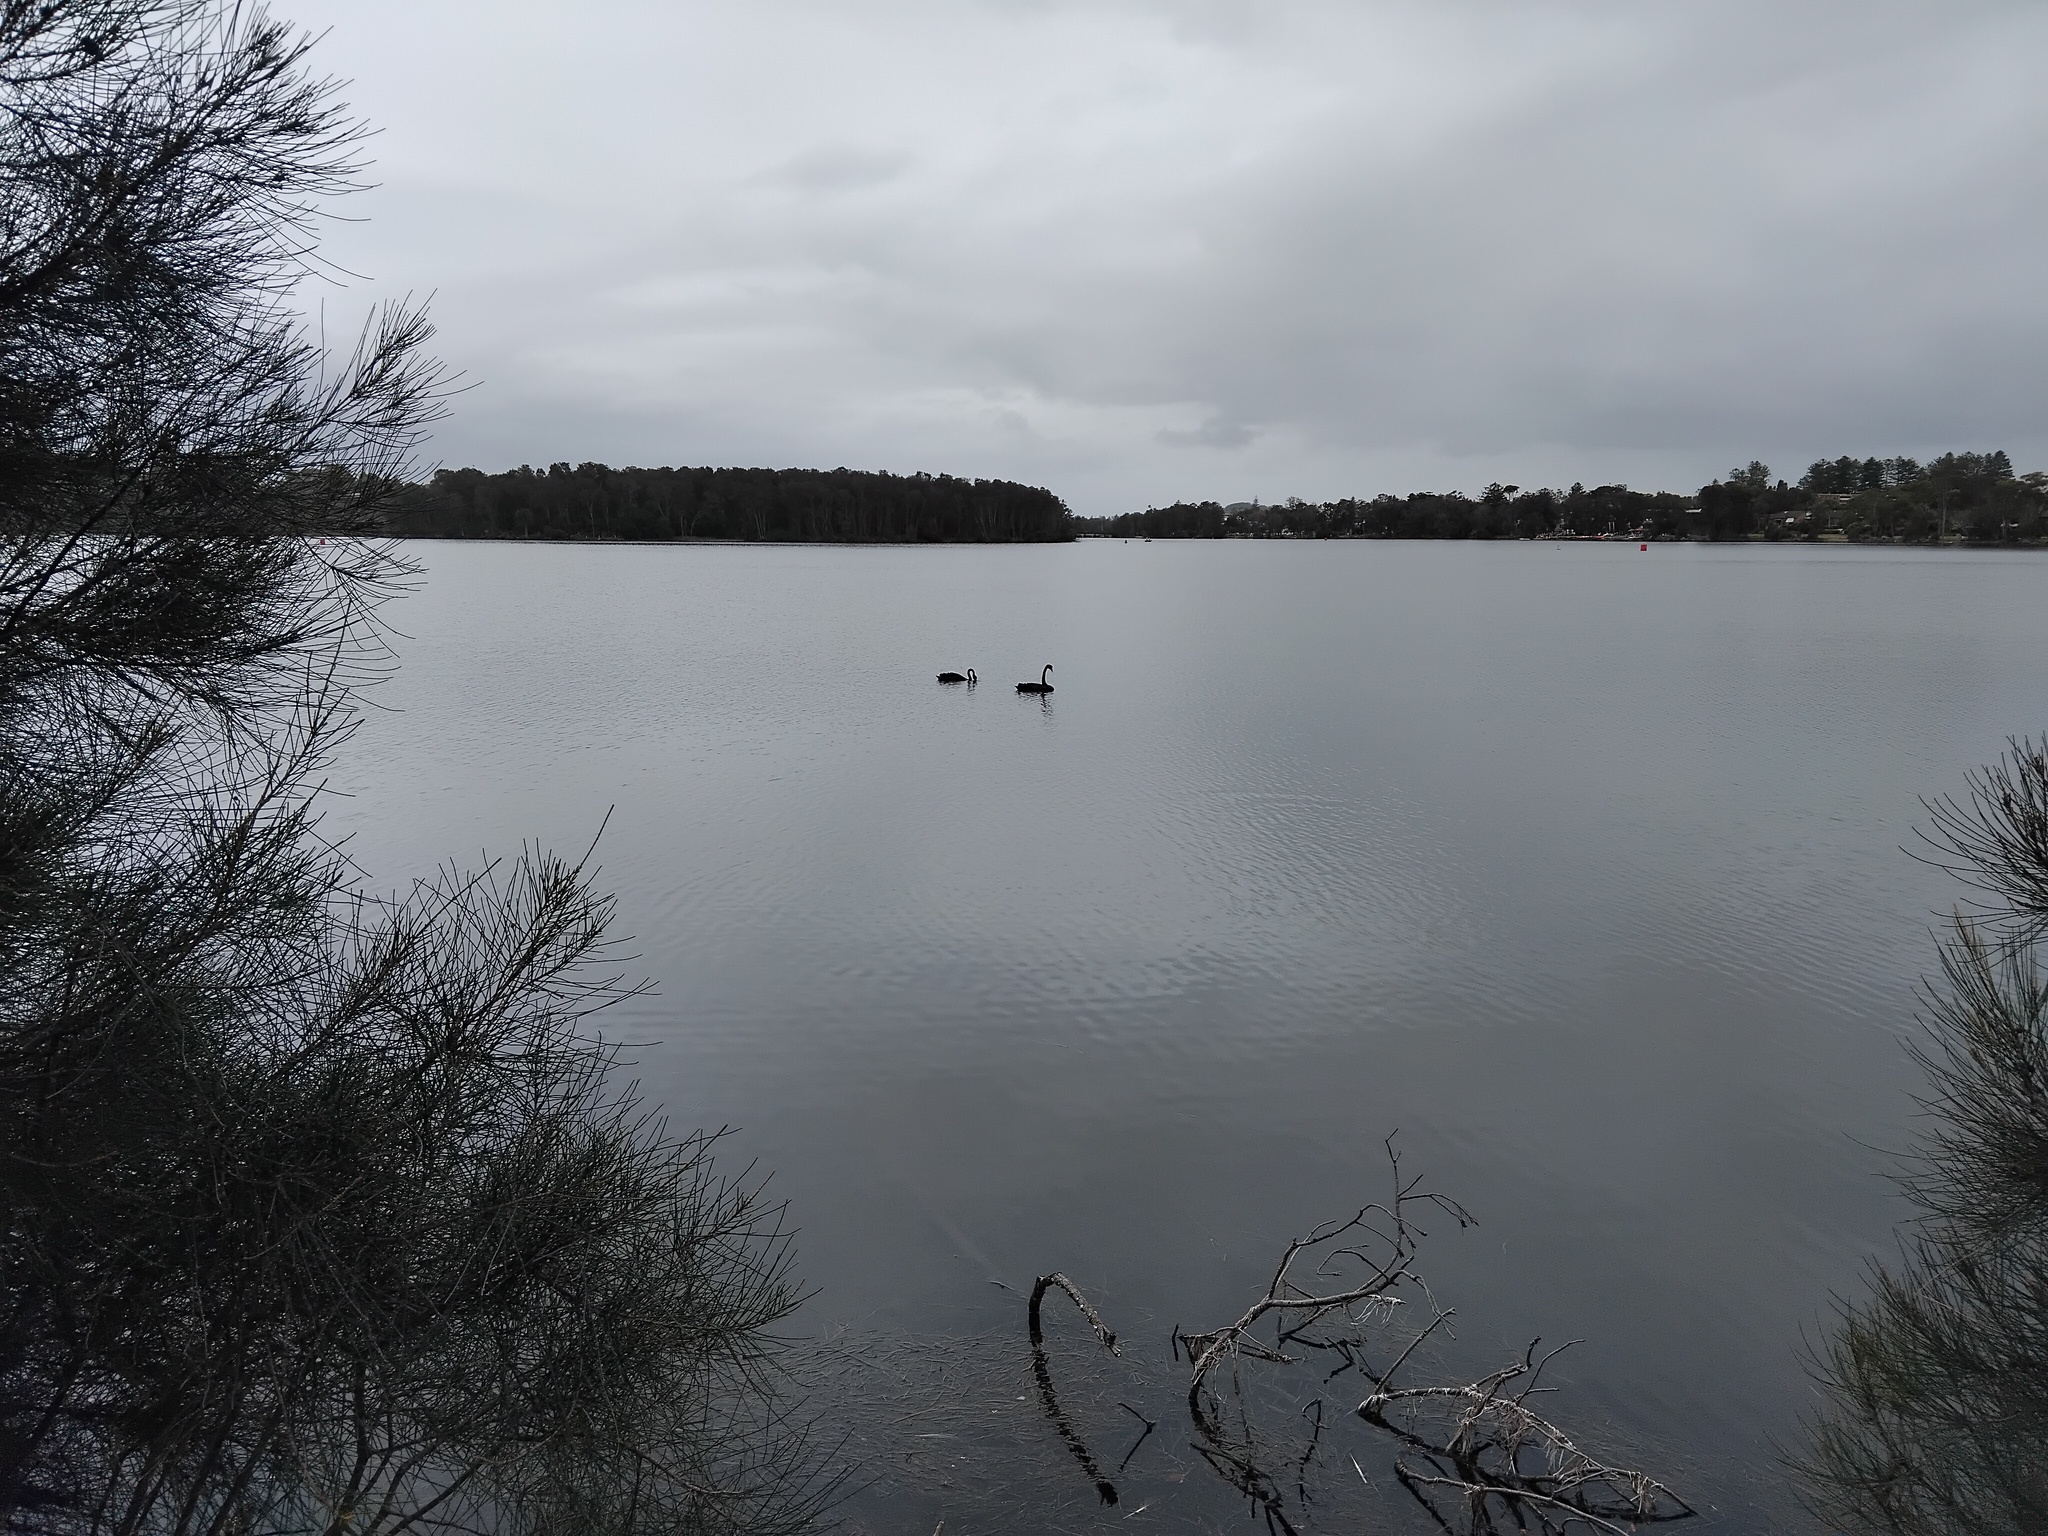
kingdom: Animalia
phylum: Chordata
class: Aves
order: Anseriformes
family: Anatidae
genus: Cygnus
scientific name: Cygnus atratus
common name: Black swan
